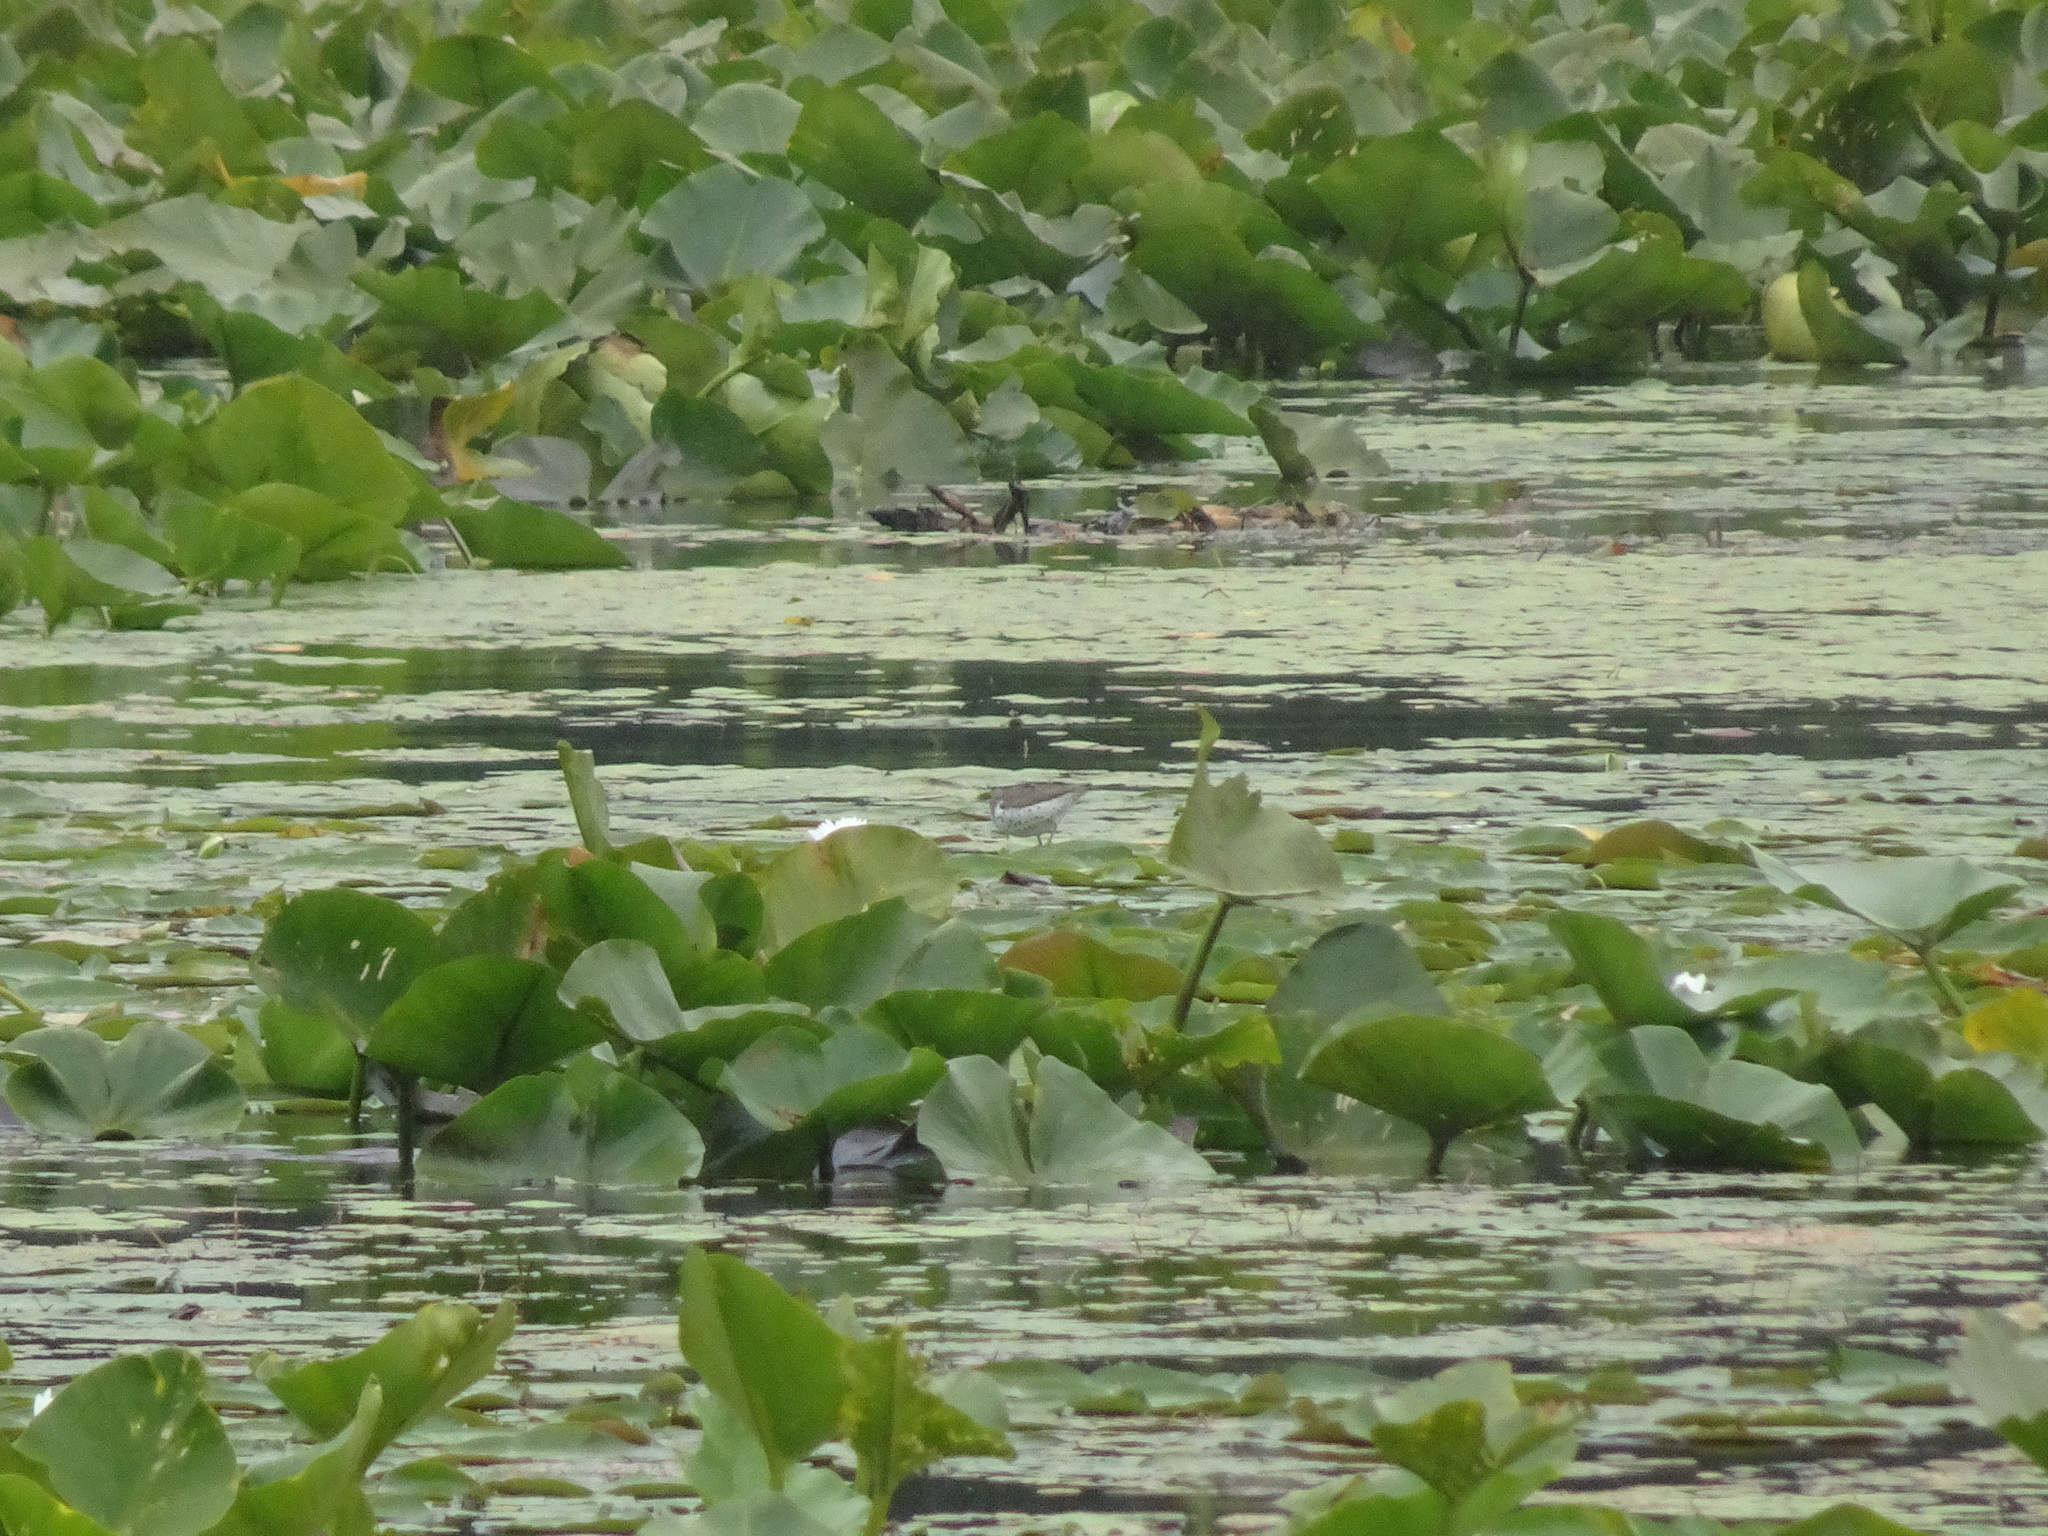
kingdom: Animalia
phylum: Chordata
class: Aves
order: Charadriiformes
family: Scolopacidae
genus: Actitis
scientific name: Actitis macularius
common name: Spotted sandpiper
